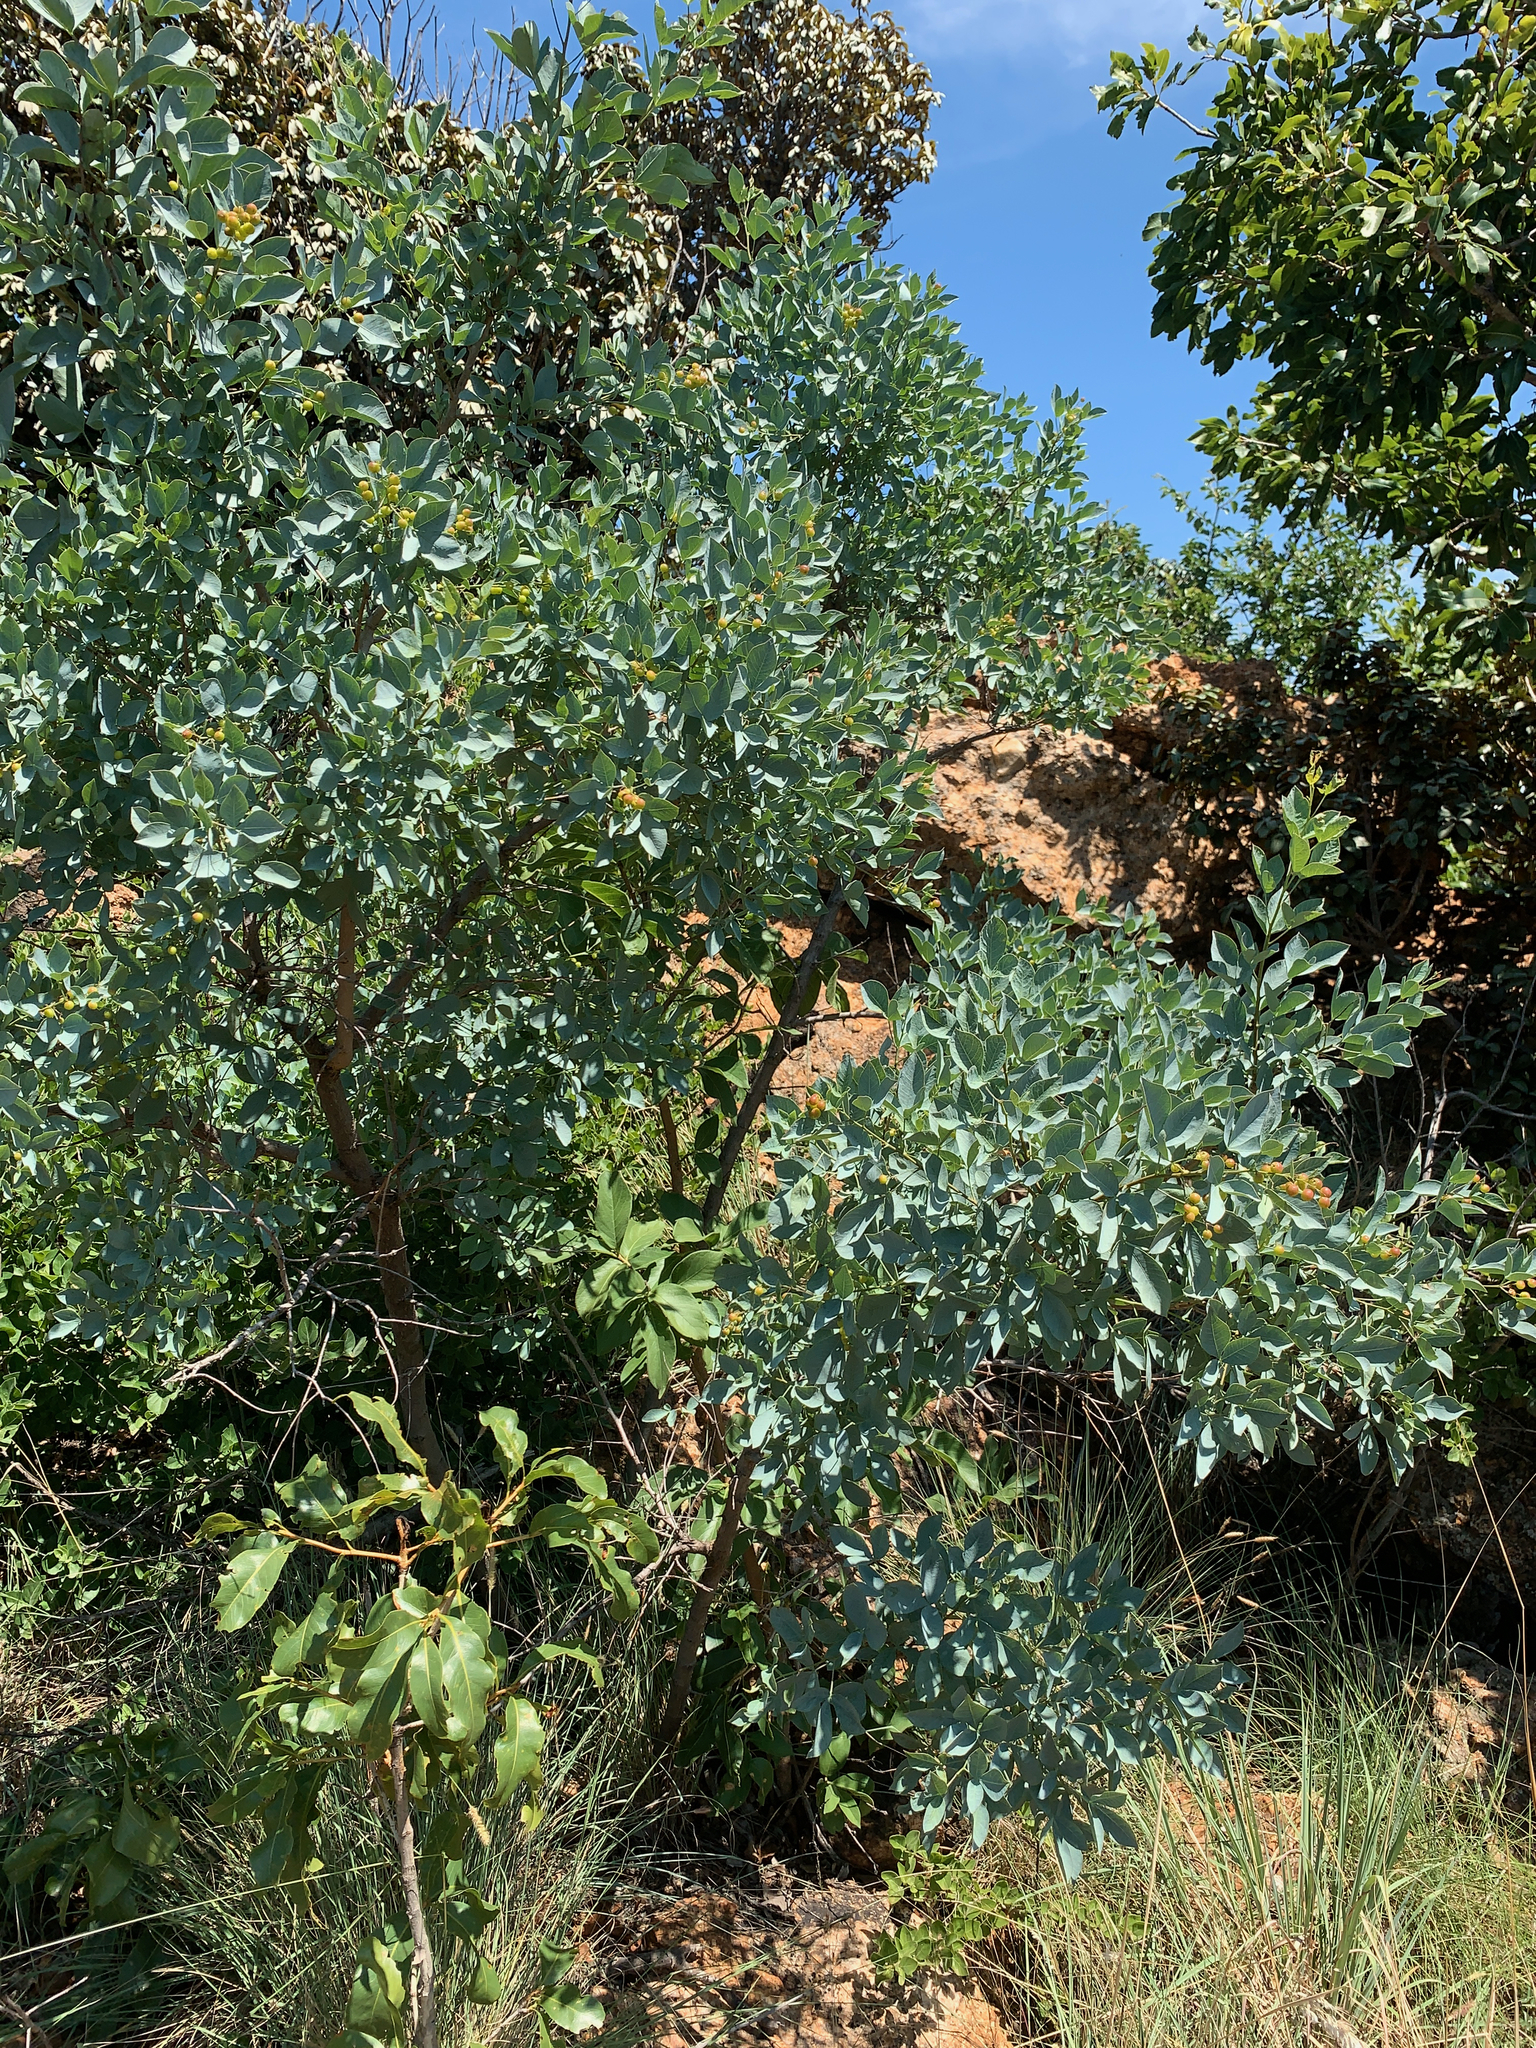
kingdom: Plantae
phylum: Tracheophyta
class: Magnoliopsida
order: Sapindales
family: Anacardiaceae
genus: Searsia
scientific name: Searsia zeyheri
